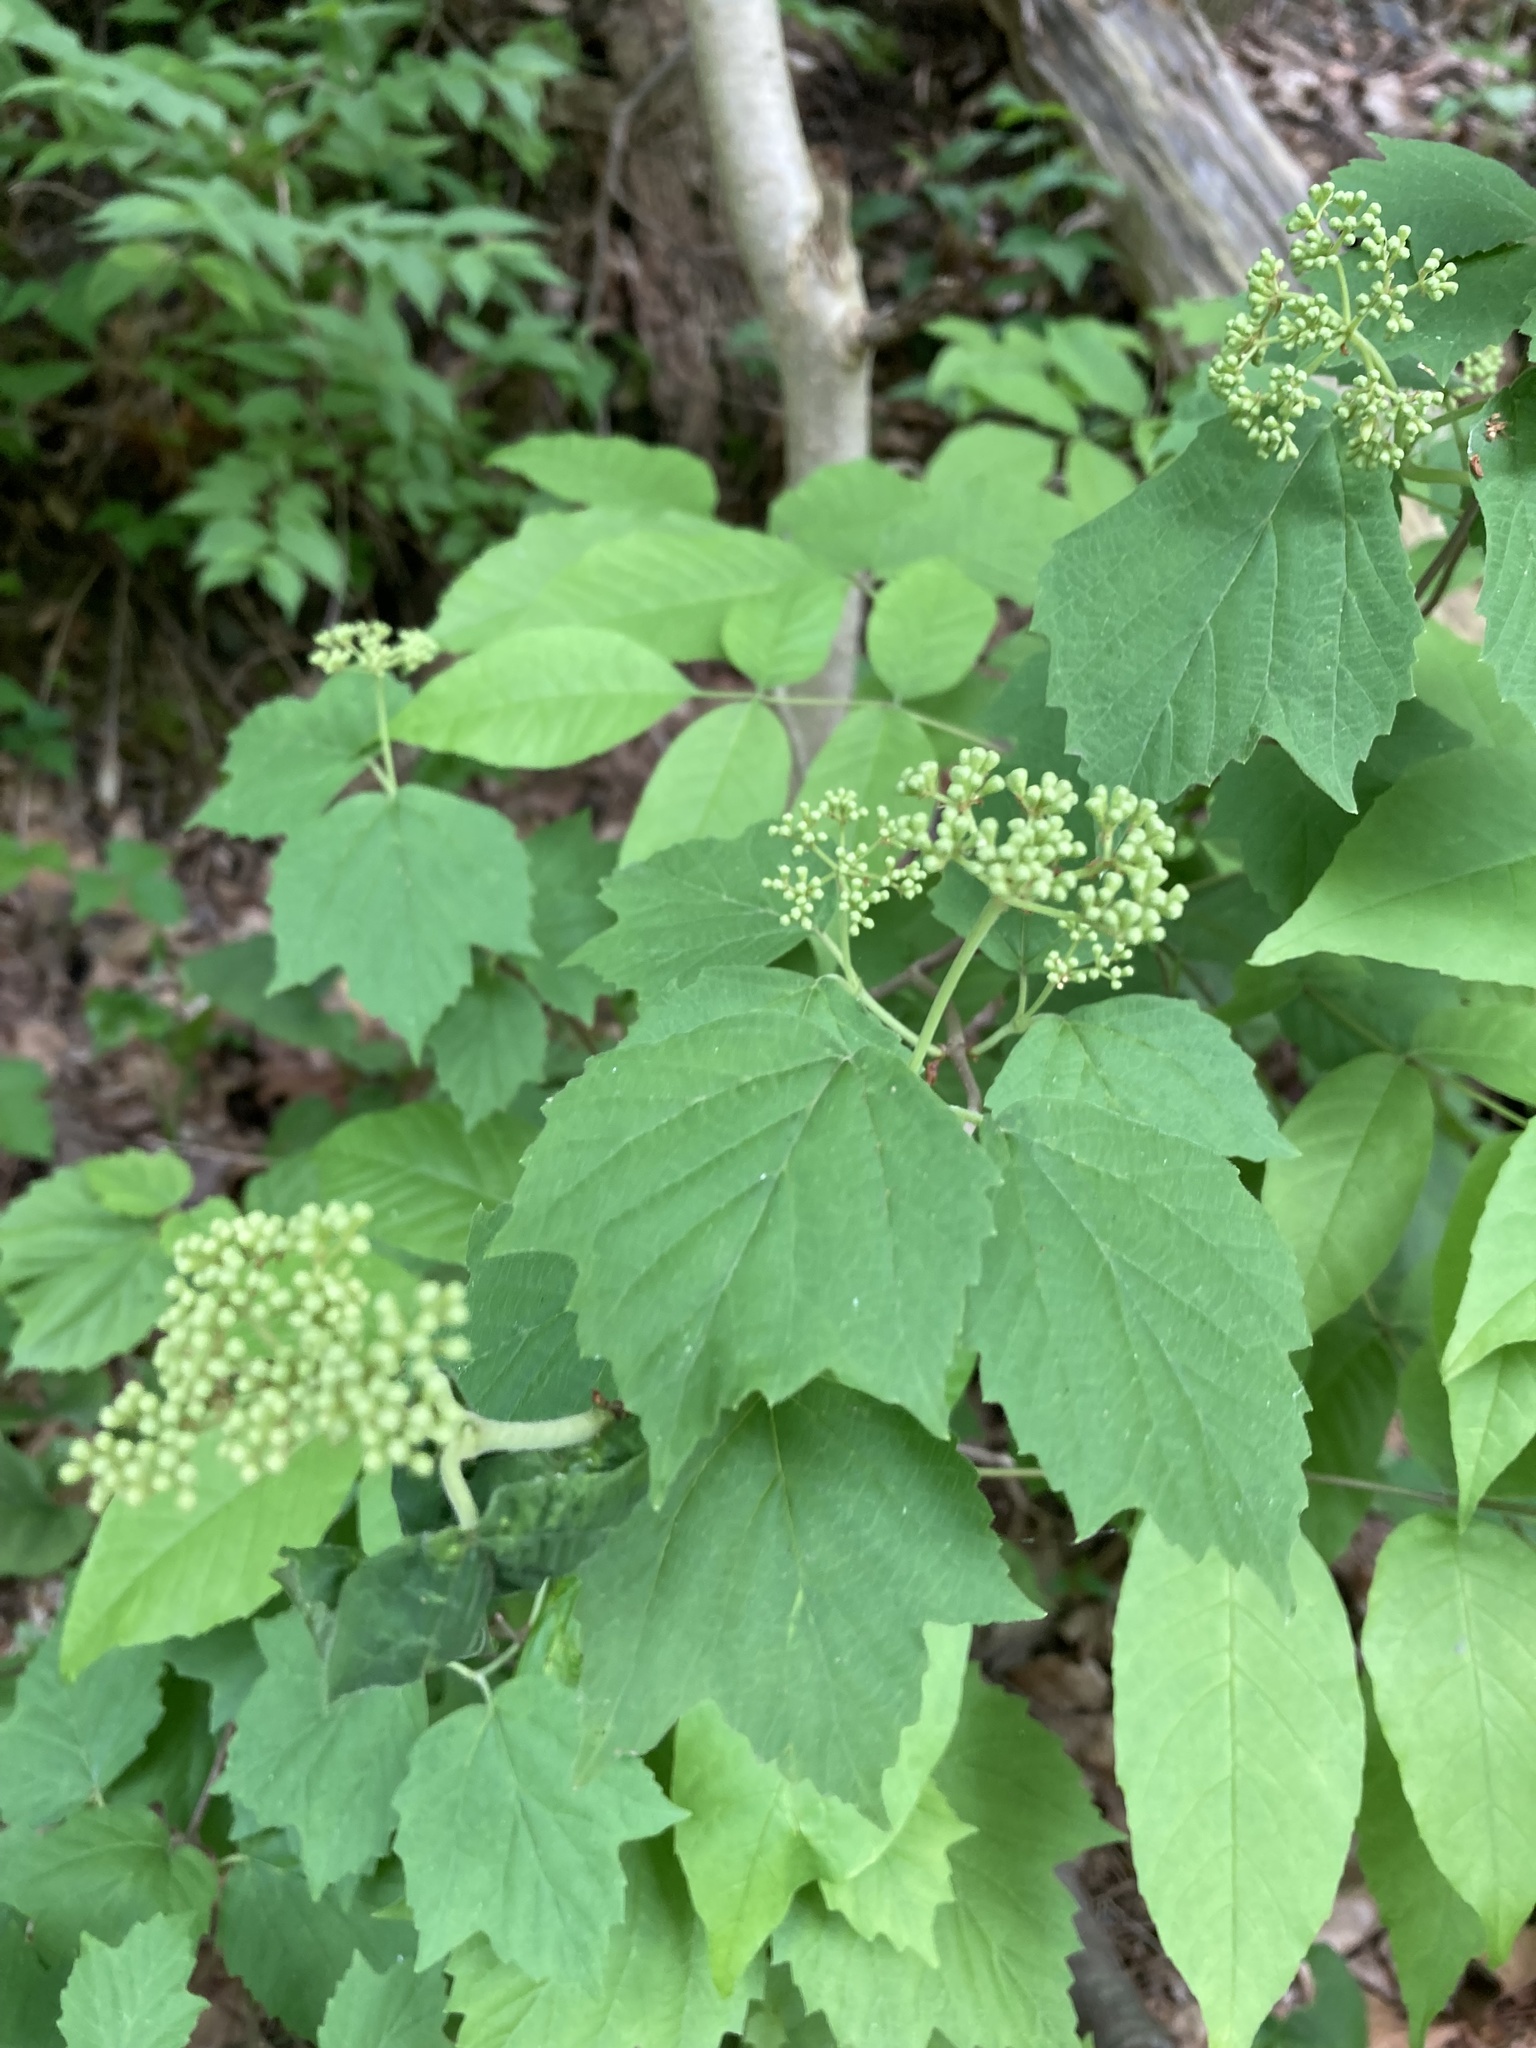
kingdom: Plantae
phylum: Tracheophyta
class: Magnoliopsida
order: Dipsacales
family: Viburnaceae
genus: Viburnum
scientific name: Viburnum acerifolium
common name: Dockmackie
